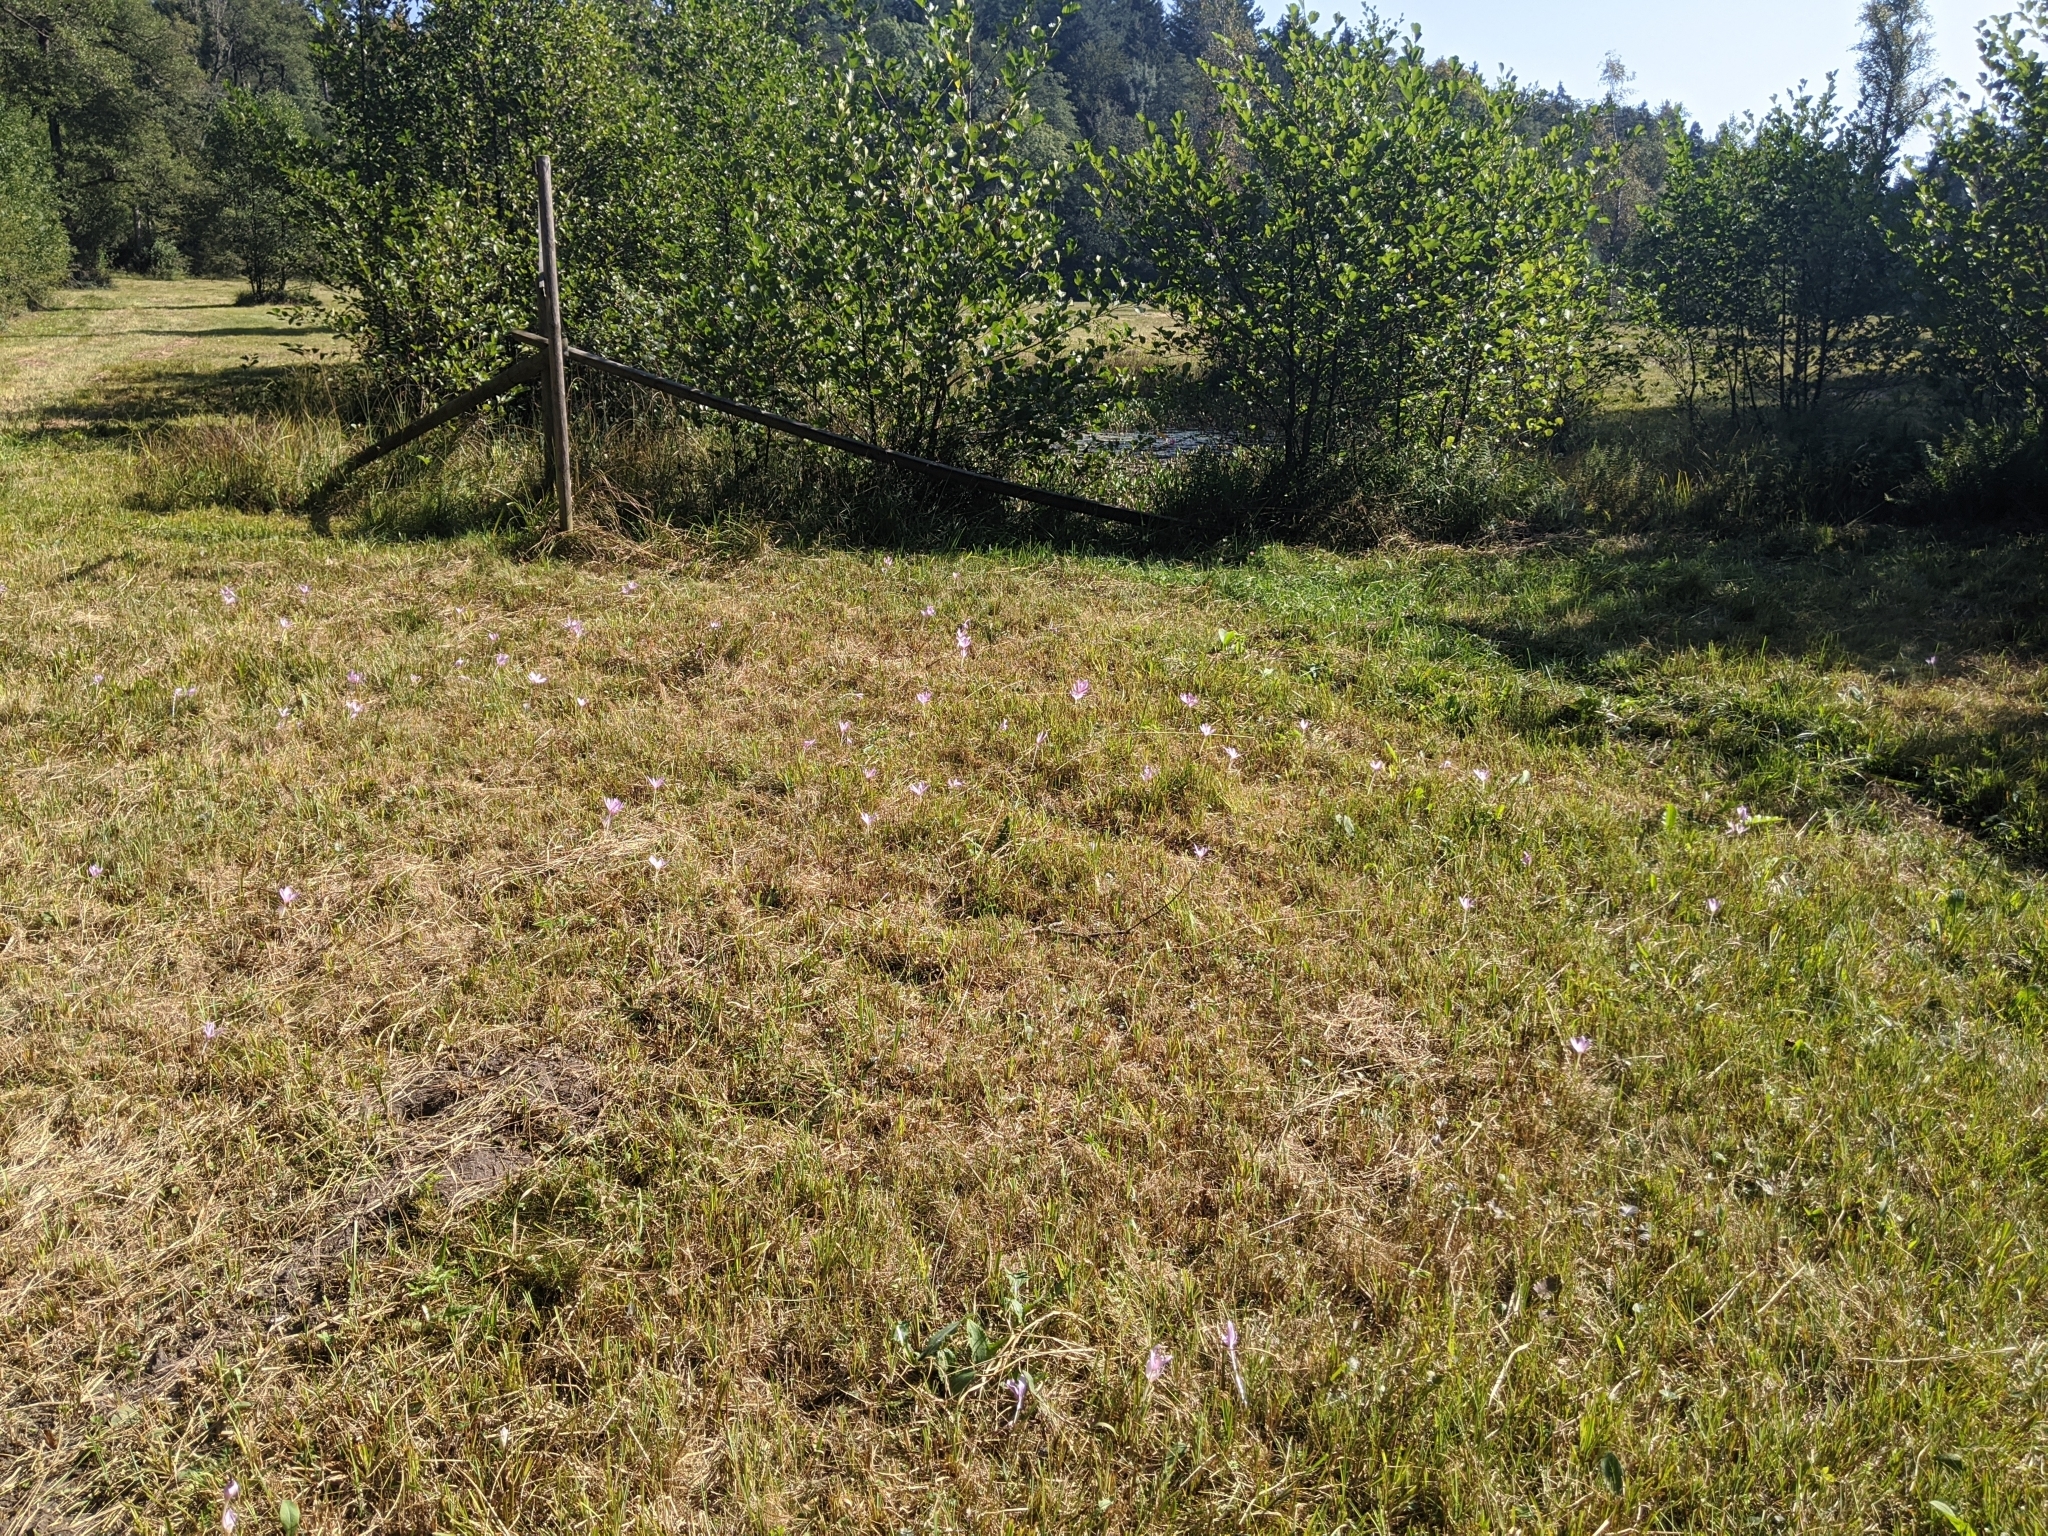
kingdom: Plantae
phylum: Tracheophyta
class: Liliopsida
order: Liliales
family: Colchicaceae
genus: Colchicum
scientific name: Colchicum autumnale
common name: Autumn crocus
